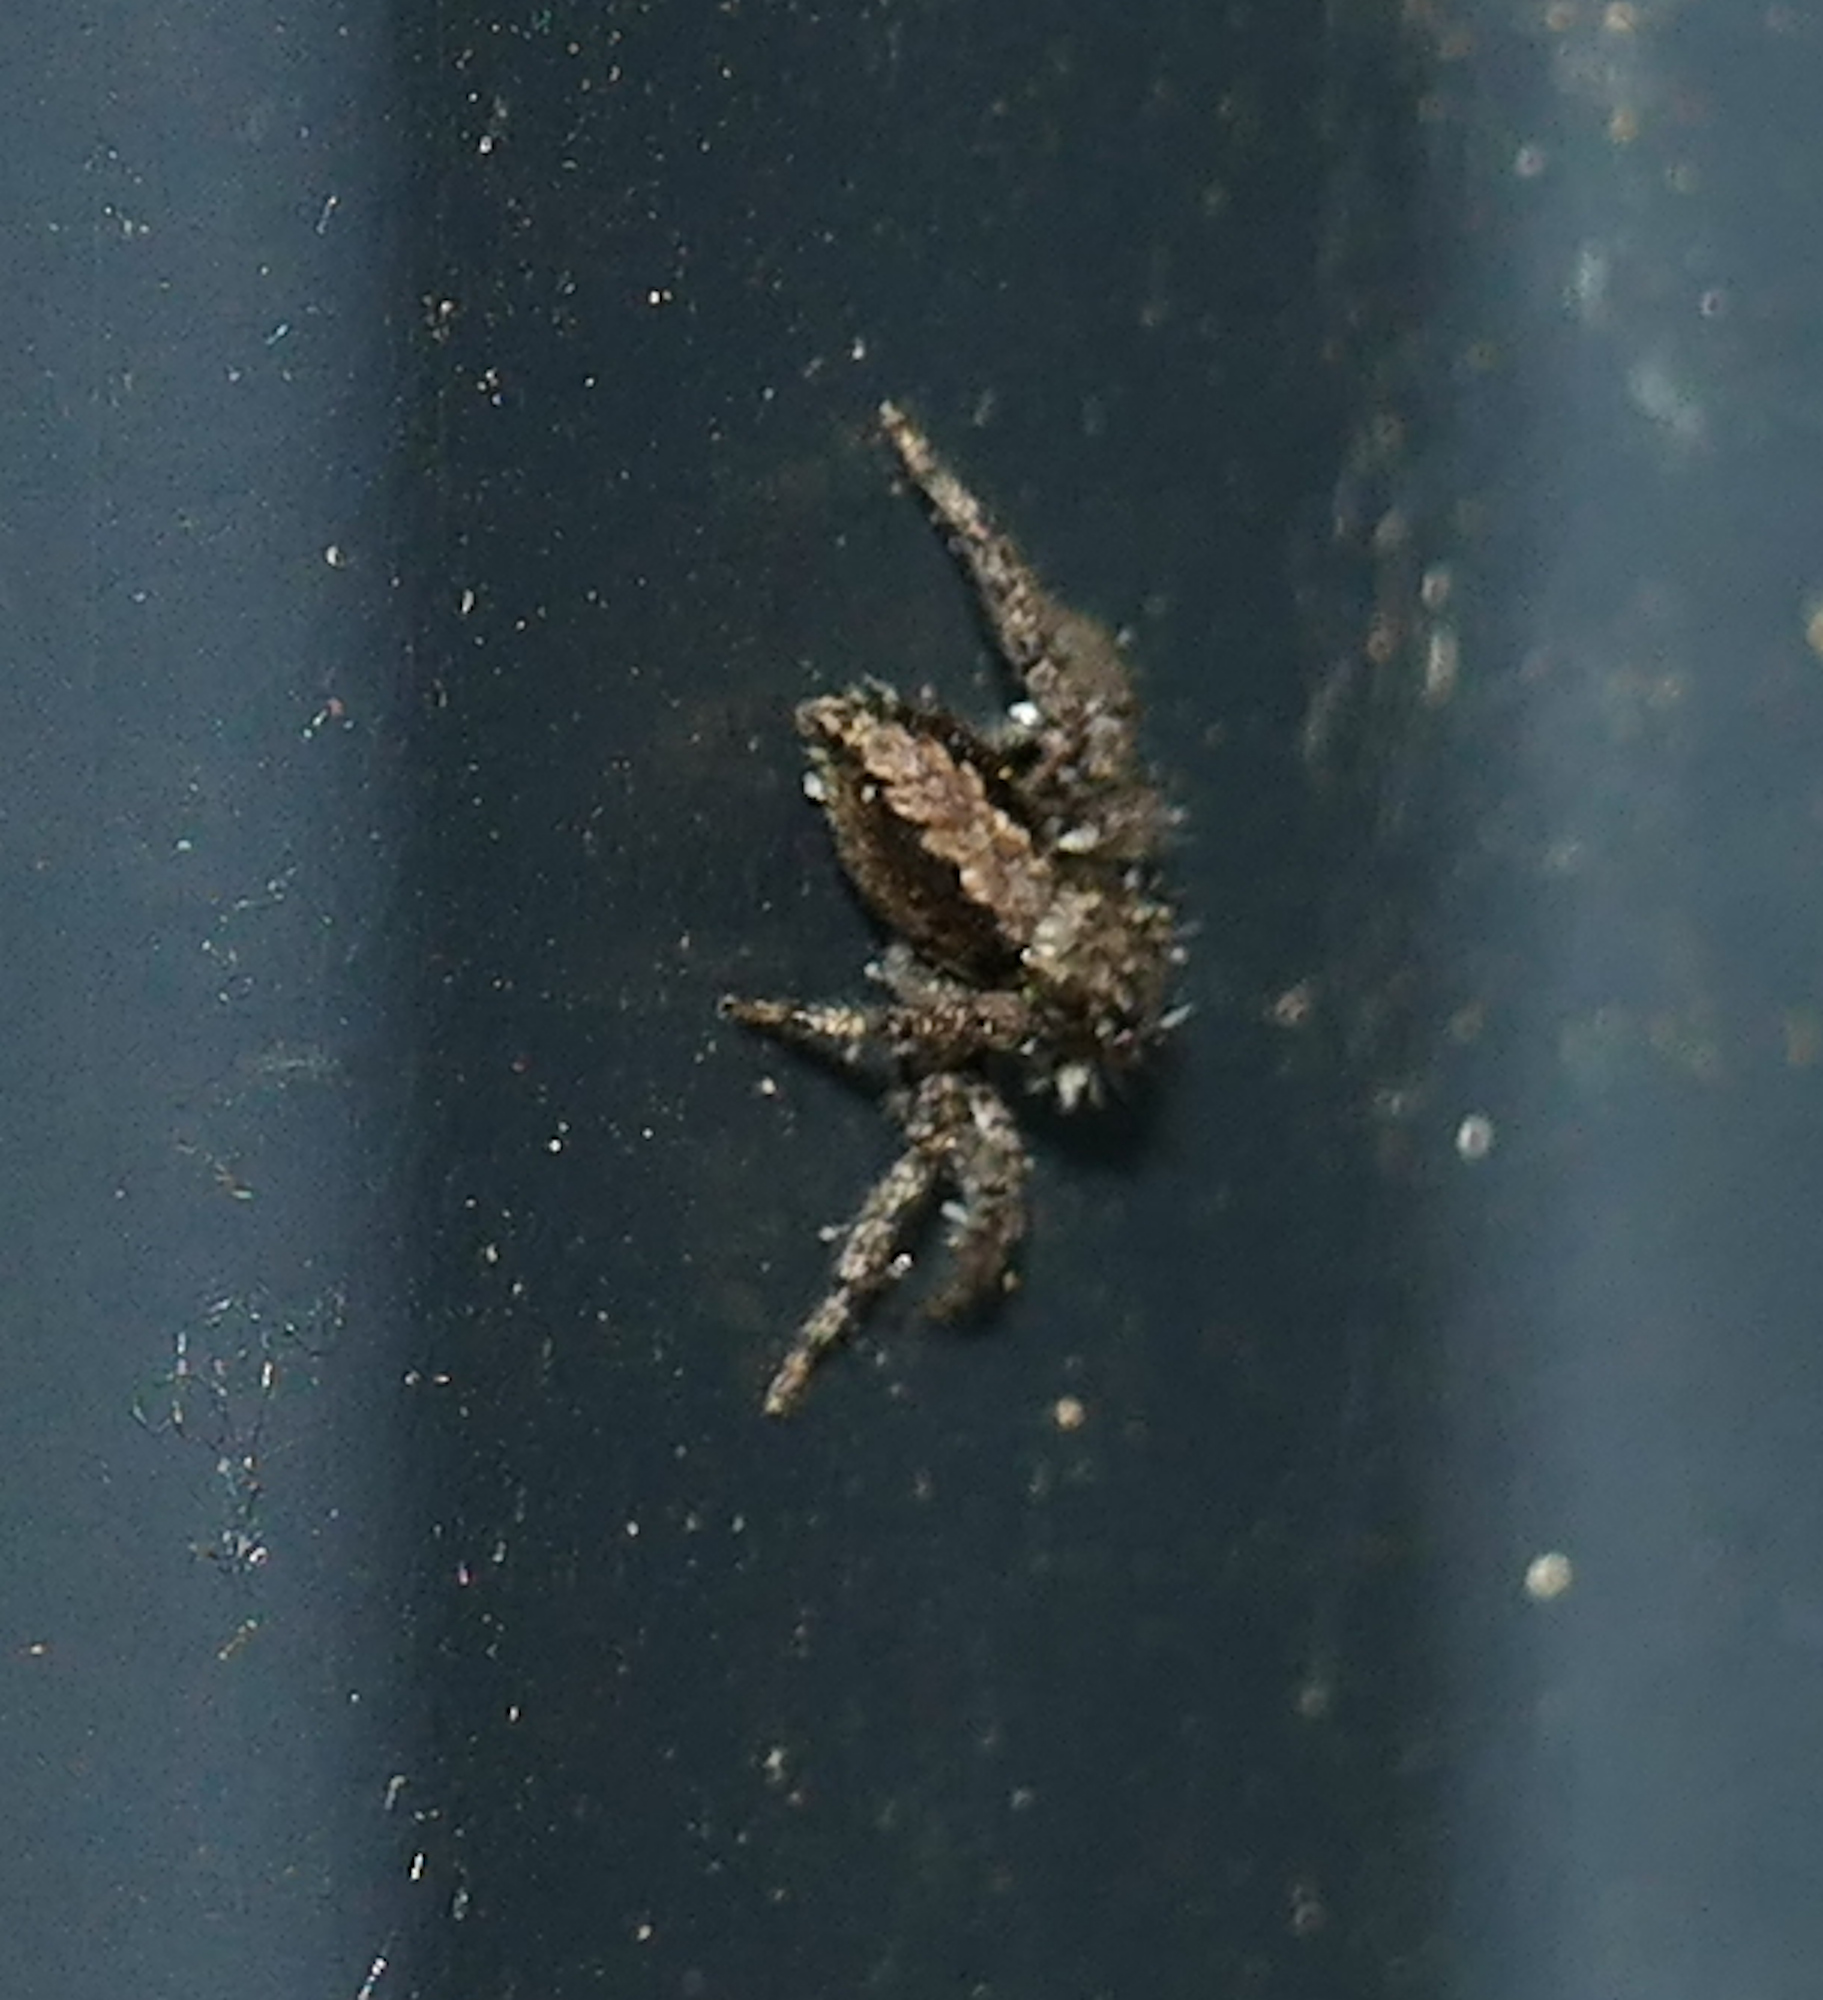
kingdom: Animalia
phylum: Arthropoda
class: Arachnida
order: Araneae
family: Salticidae
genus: Platycryptus
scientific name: Platycryptus californicus
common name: Jumping spiders
